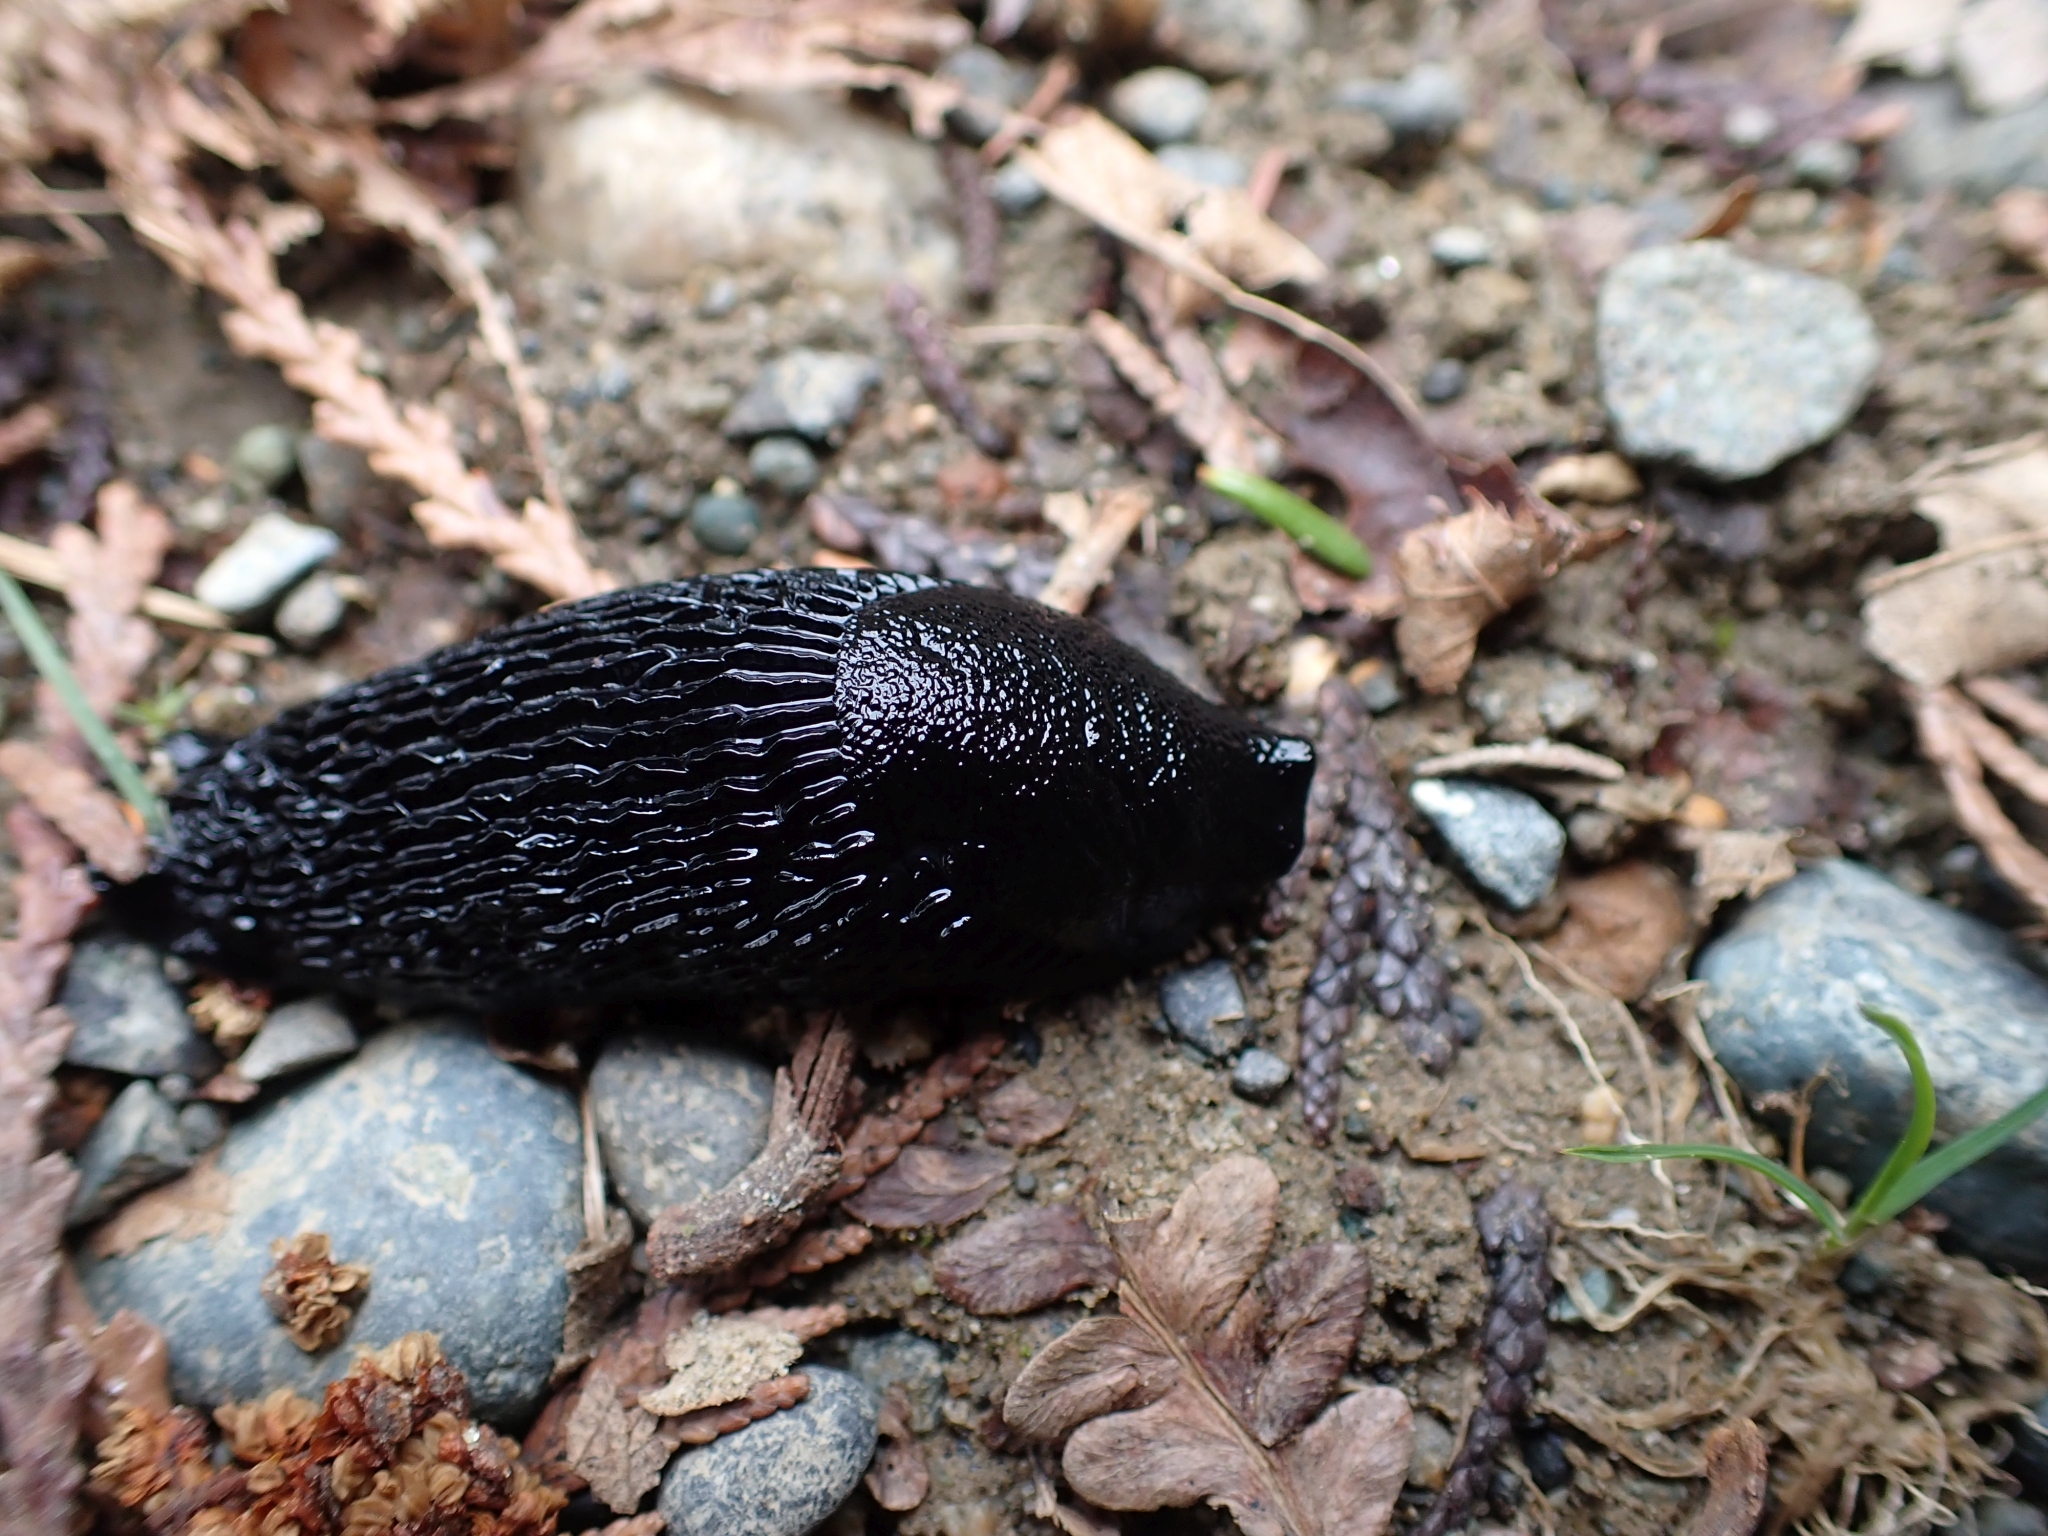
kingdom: Animalia
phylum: Mollusca
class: Gastropoda
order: Stylommatophora
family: Arionidae
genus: Arion
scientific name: Arion
